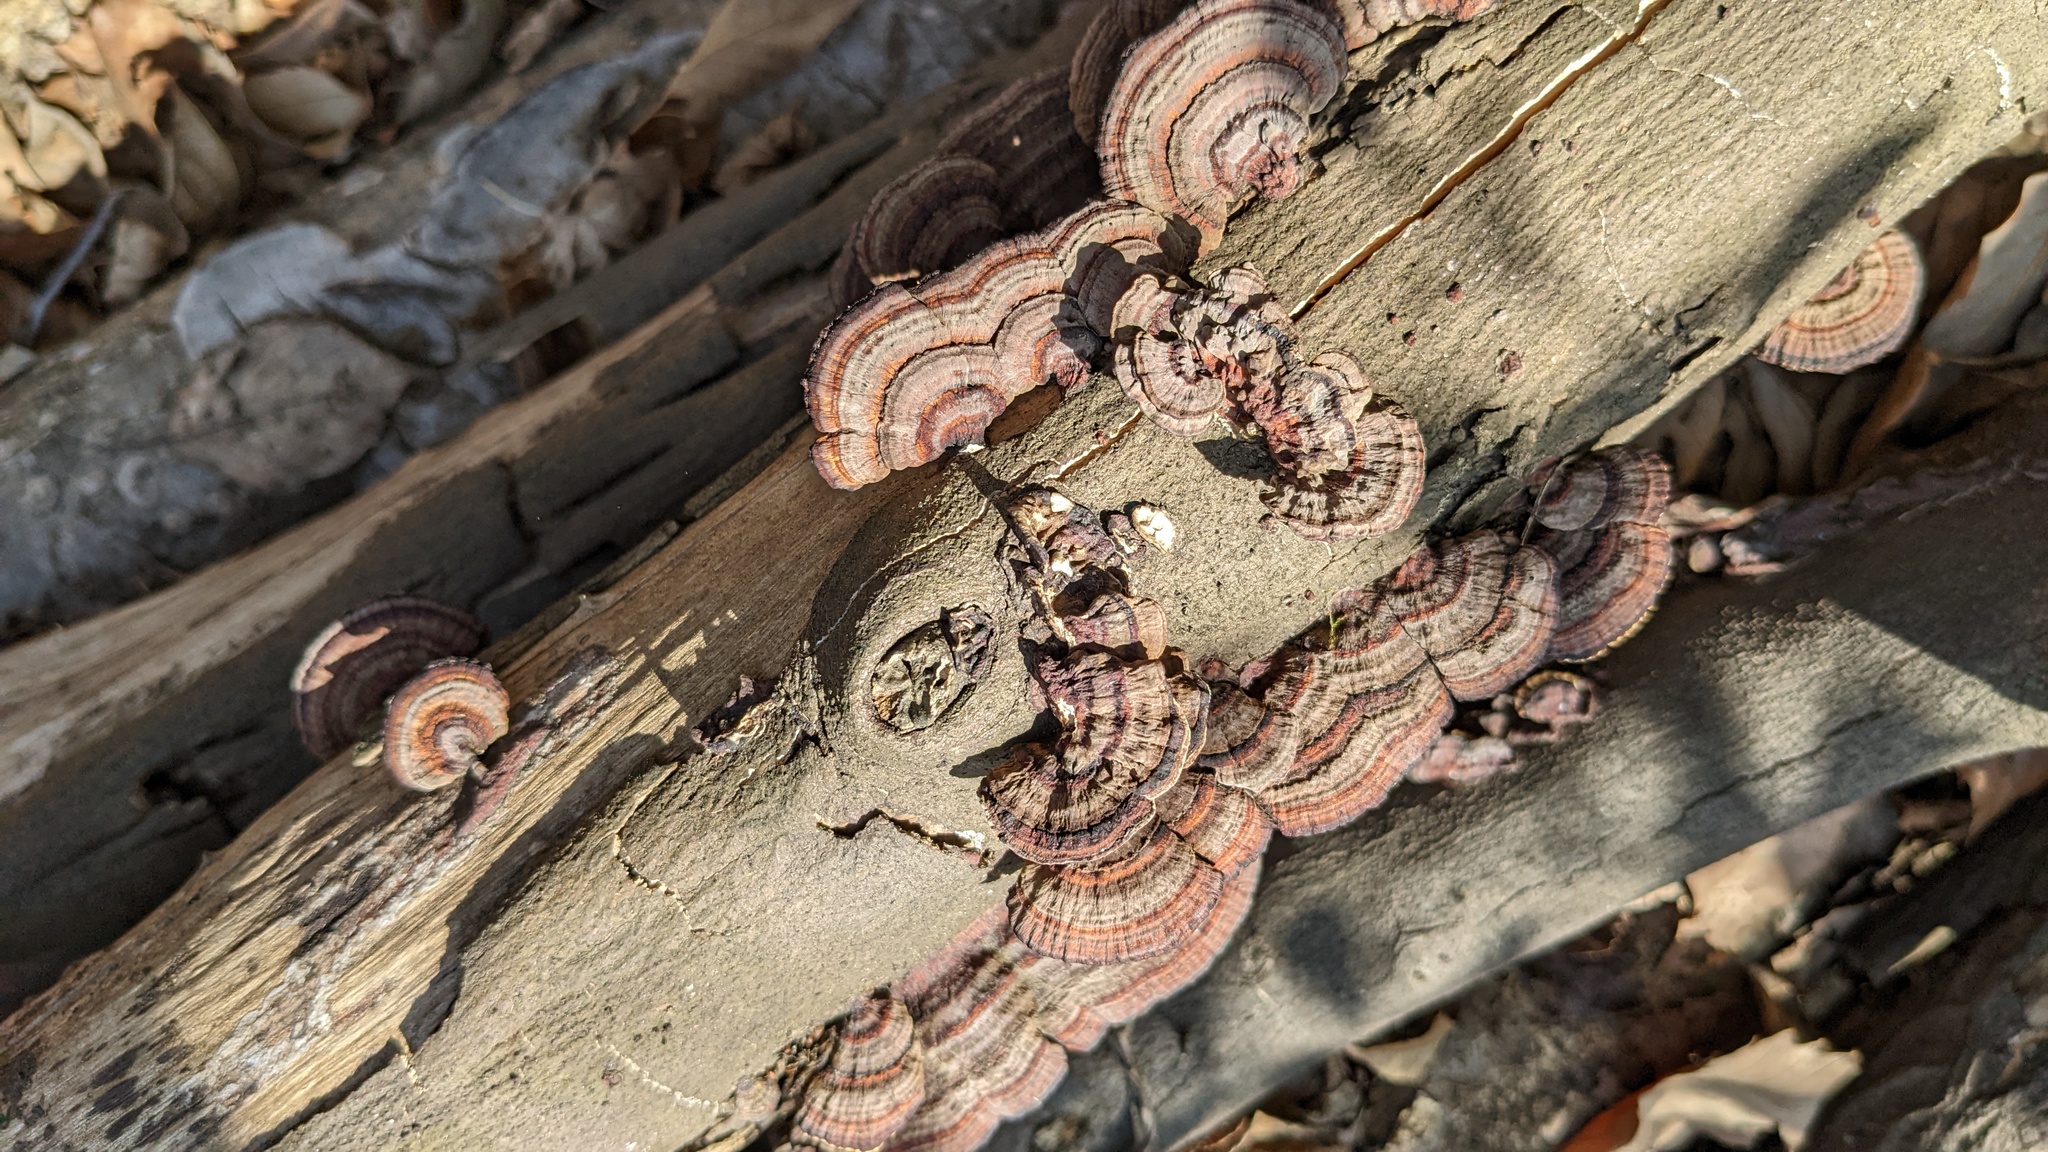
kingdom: Fungi
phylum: Basidiomycota
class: Agaricomycetes
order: Polyporales
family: Polyporaceae
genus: Daedaleopsis
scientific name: Daedaleopsis tricolor
